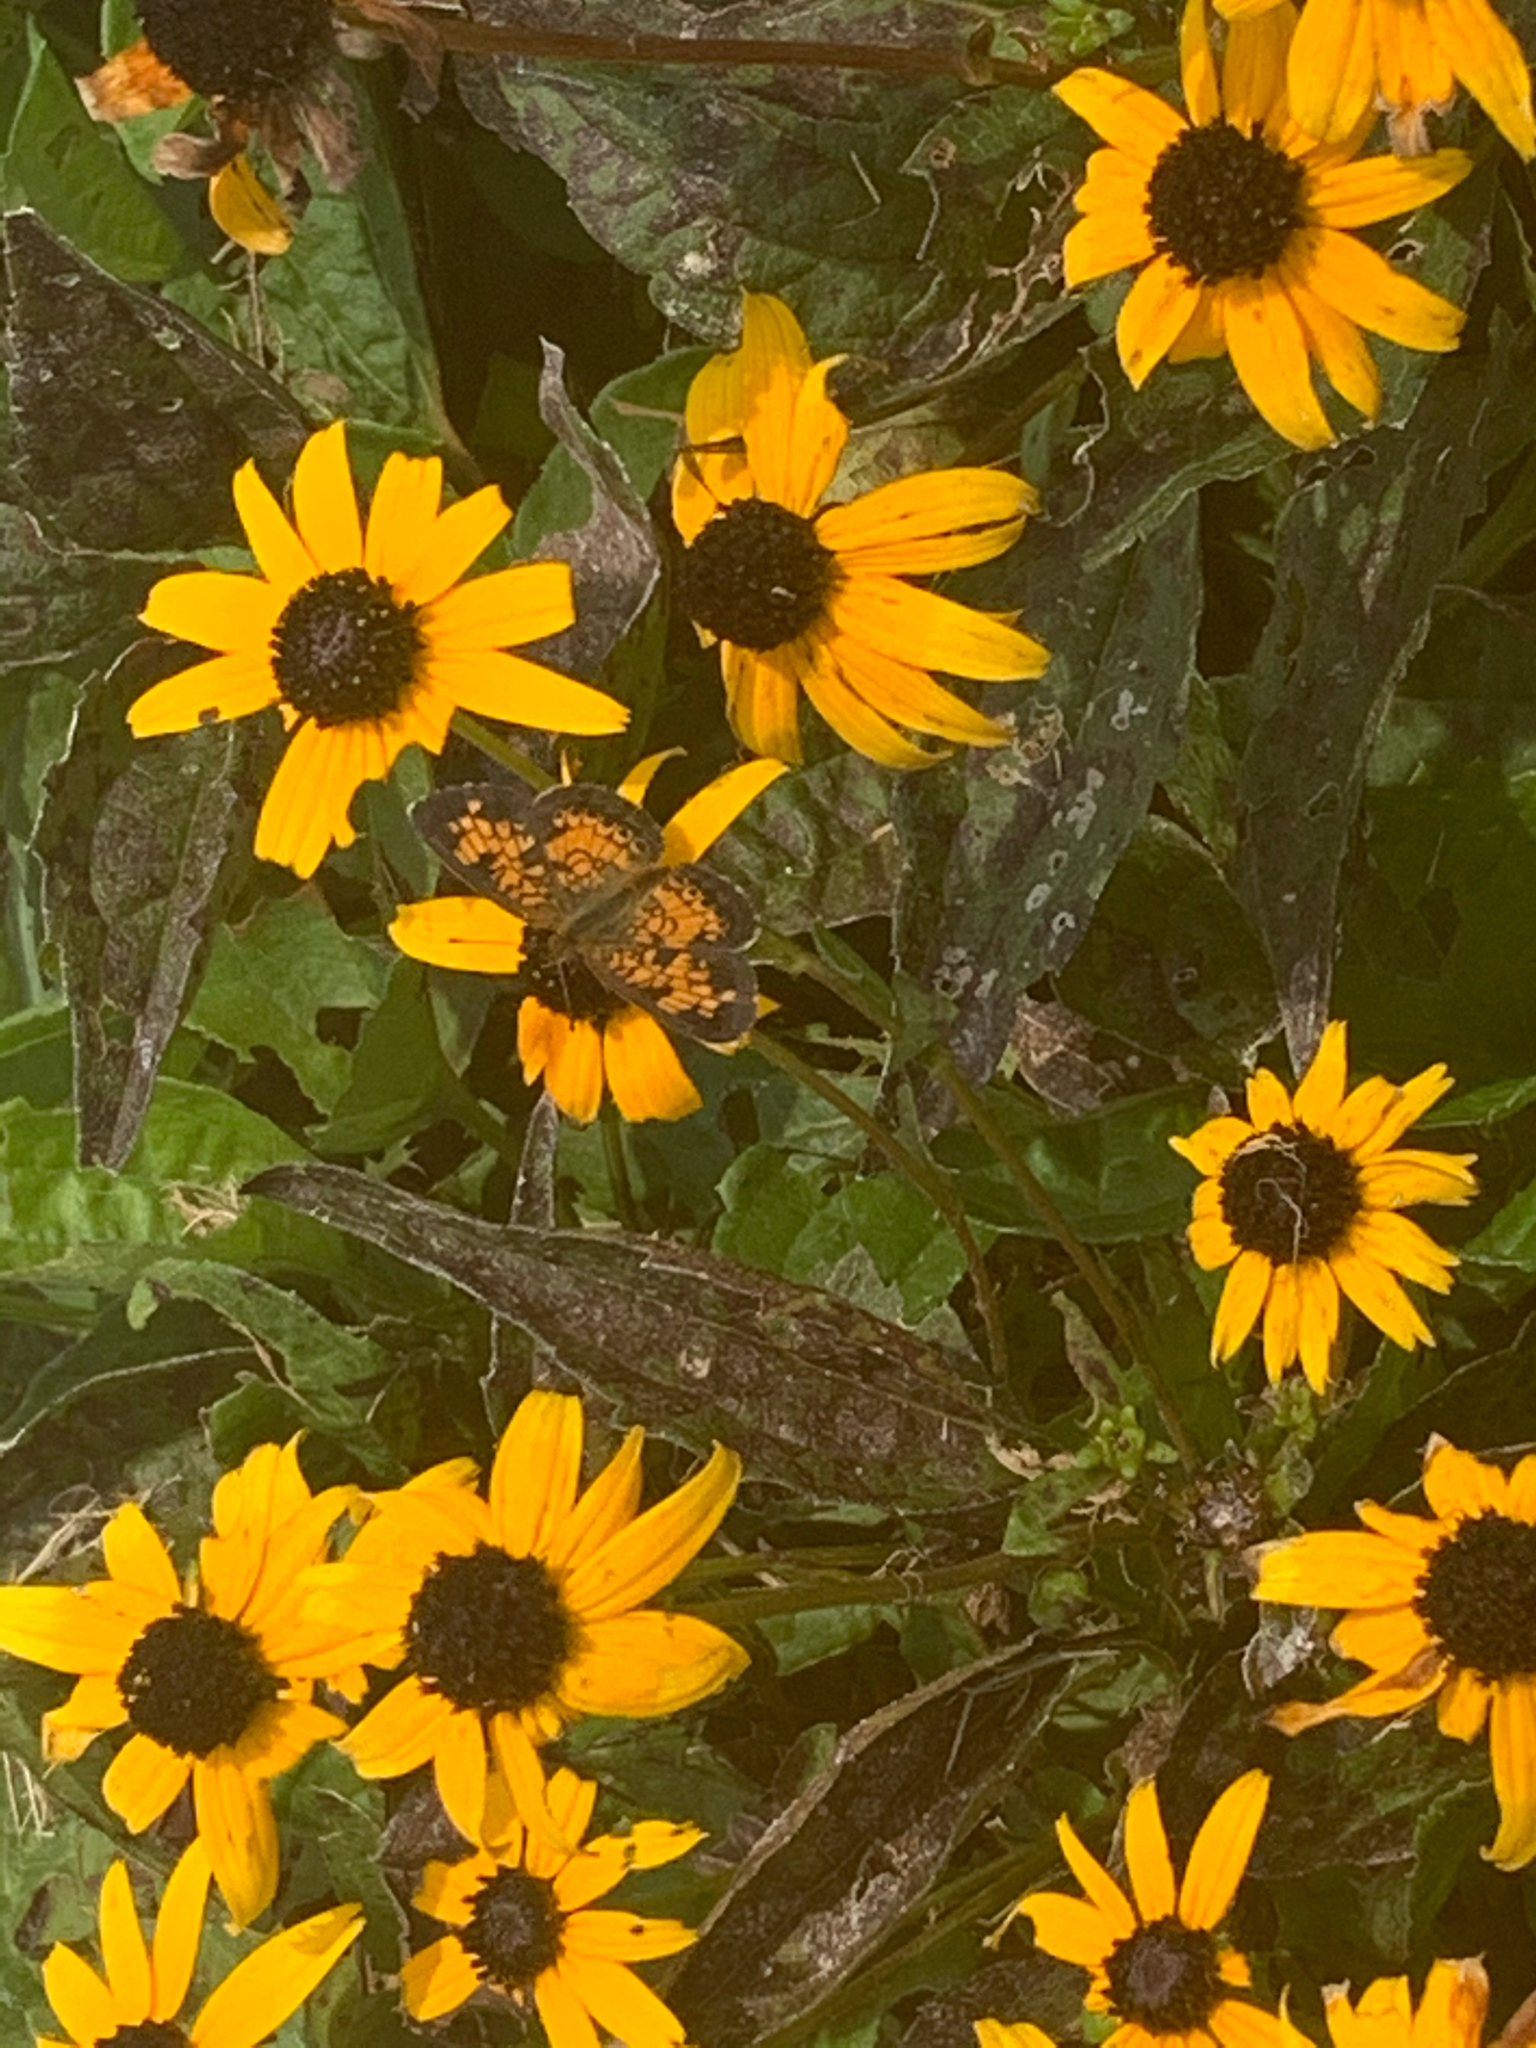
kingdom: Animalia
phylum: Arthropoda
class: Insecta
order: Lepidoptera
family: Nymphalidae
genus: Phyciodes
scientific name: Phyciodes tharos
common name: Pearl crescent
